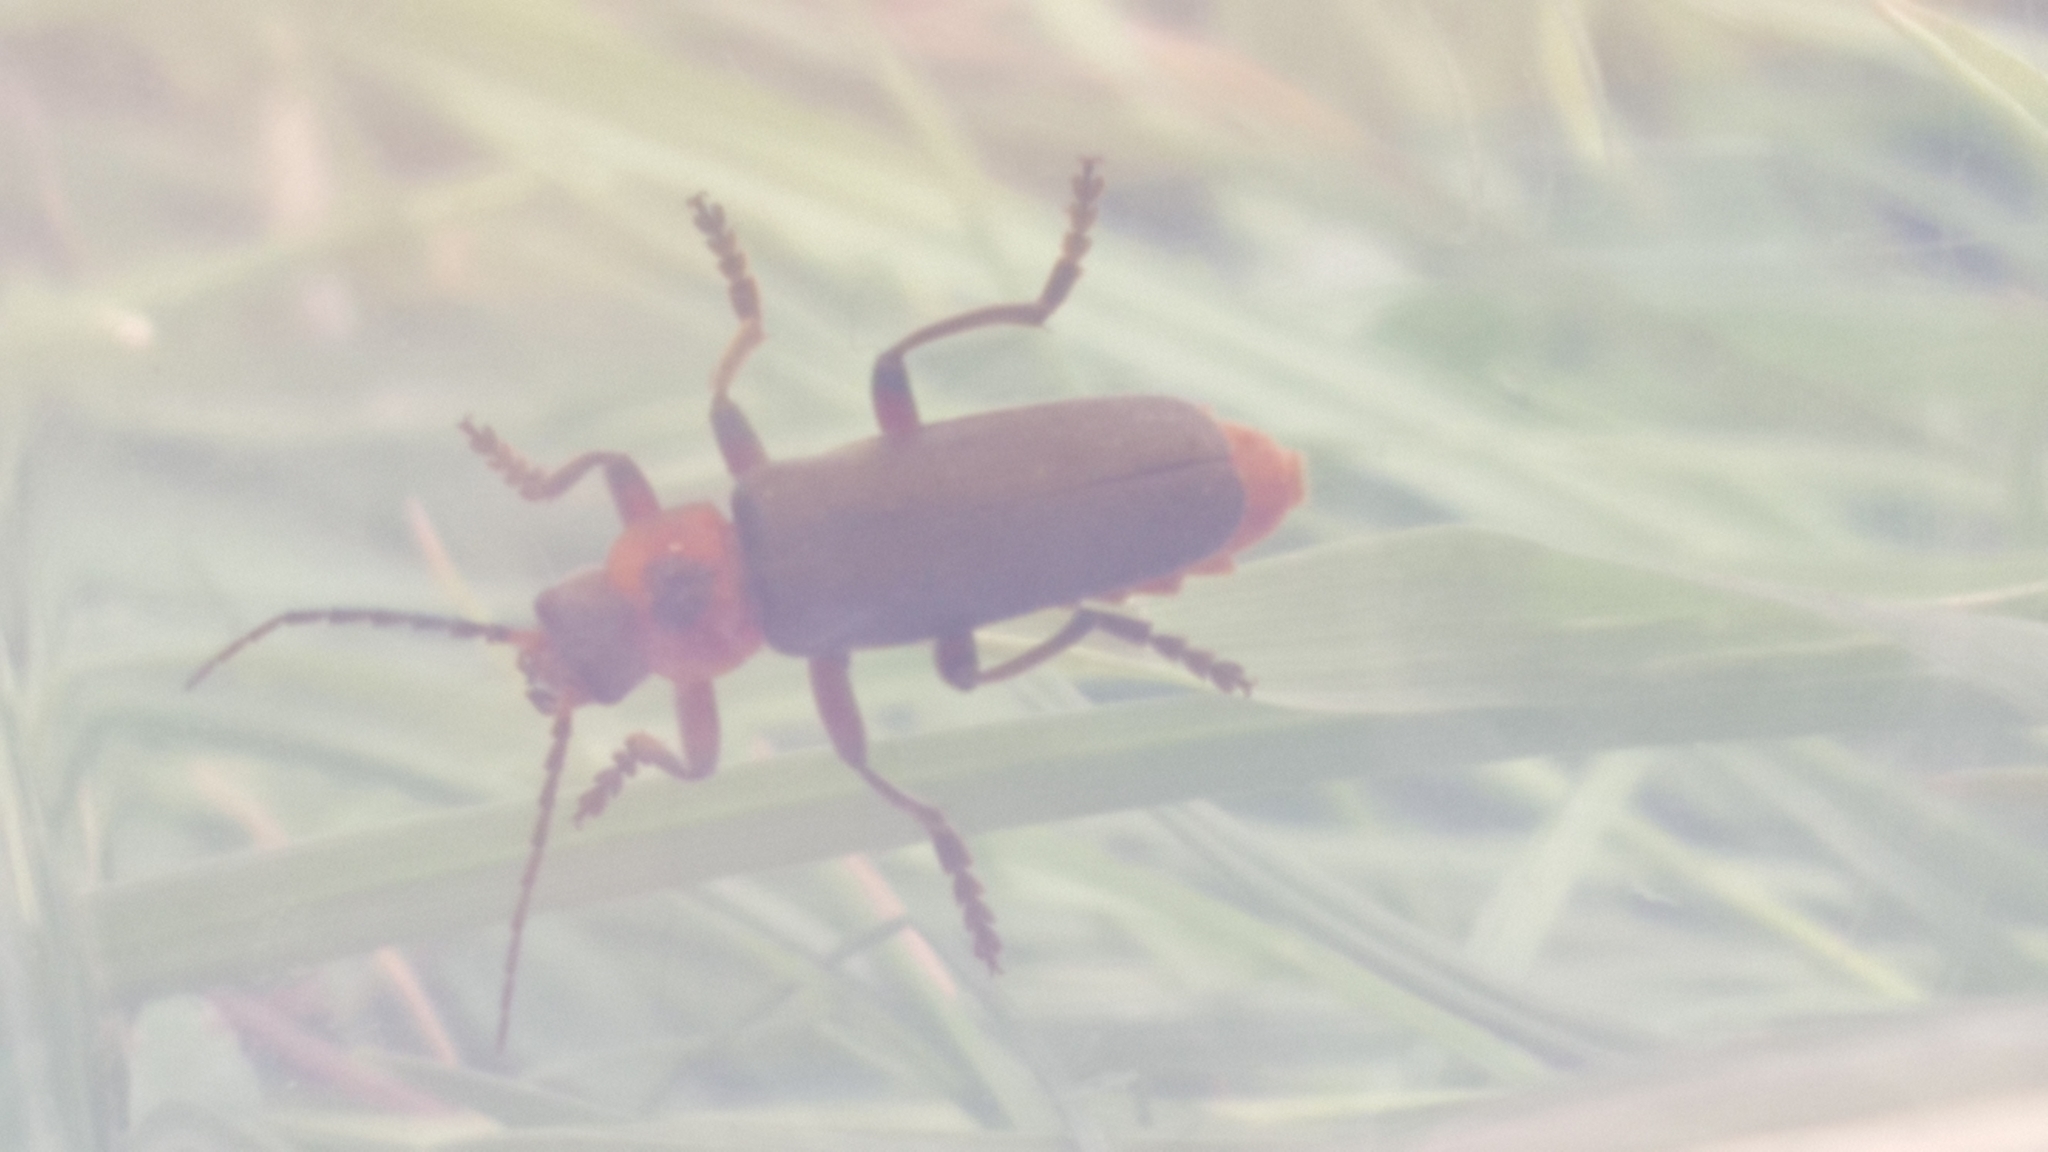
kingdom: Animalia
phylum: Arthropoda
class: Insecta
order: Coleoptera
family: Cantharidae
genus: Cantharis
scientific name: Cantharis rustica
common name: Soldier beetle
